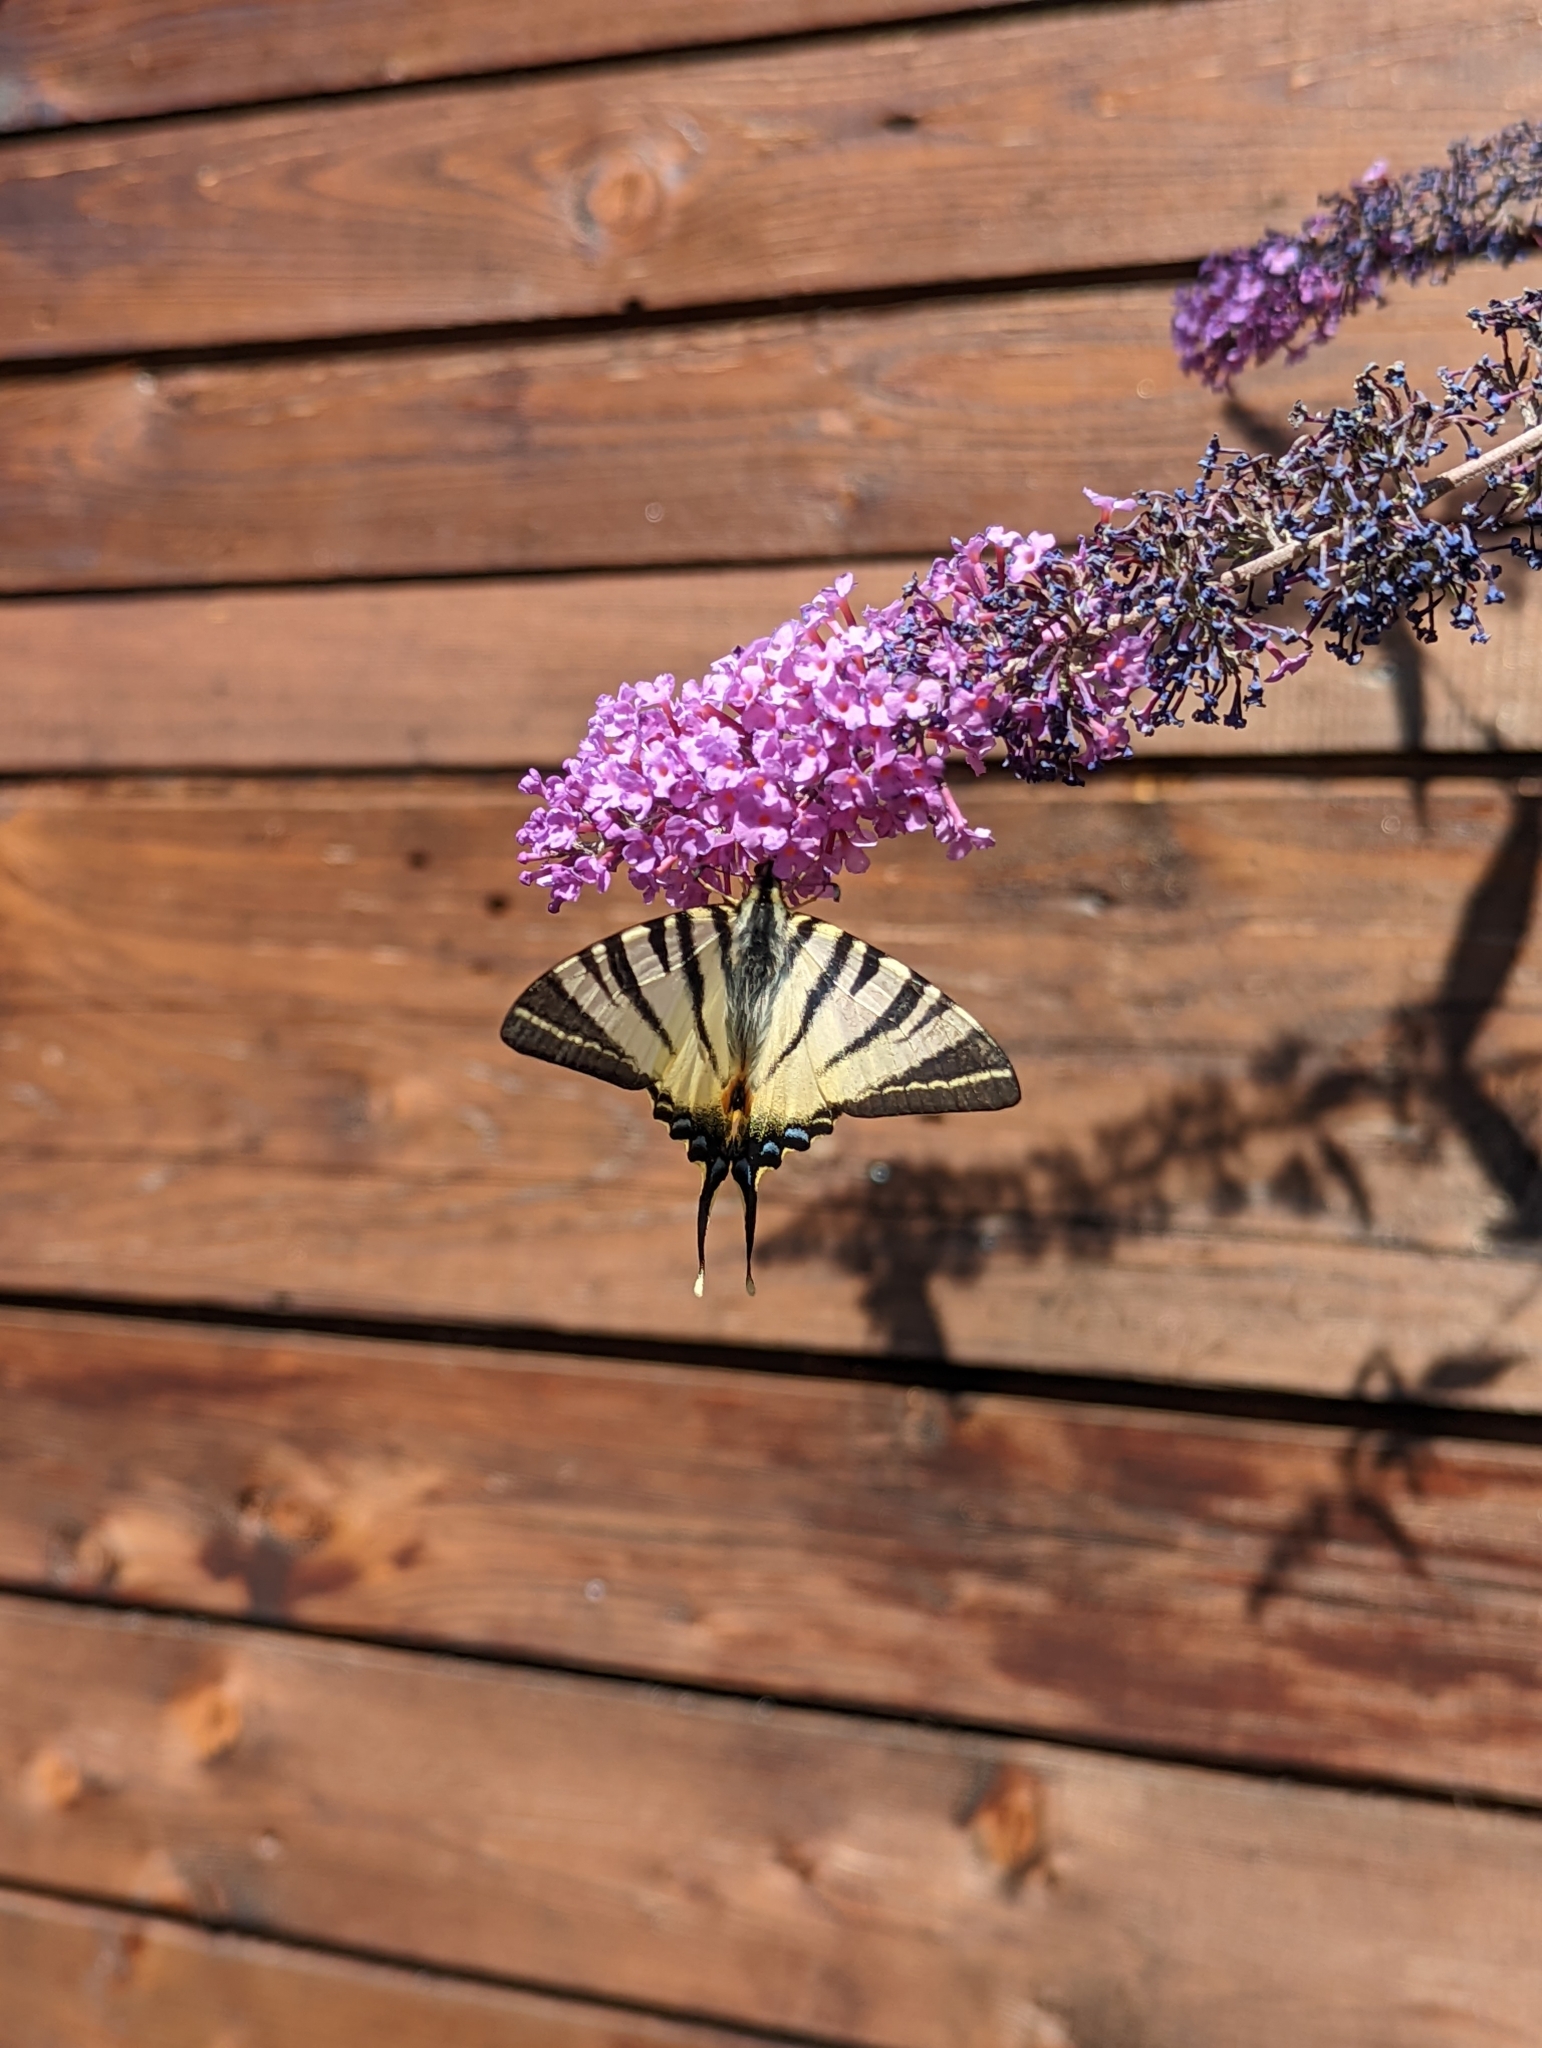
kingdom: Animalia
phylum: Arthropoda
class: Insecta
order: Lepidoptera
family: Papilionidae
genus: Iphiclides
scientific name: Iphiclides podalirius
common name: Scarce swallowtail
